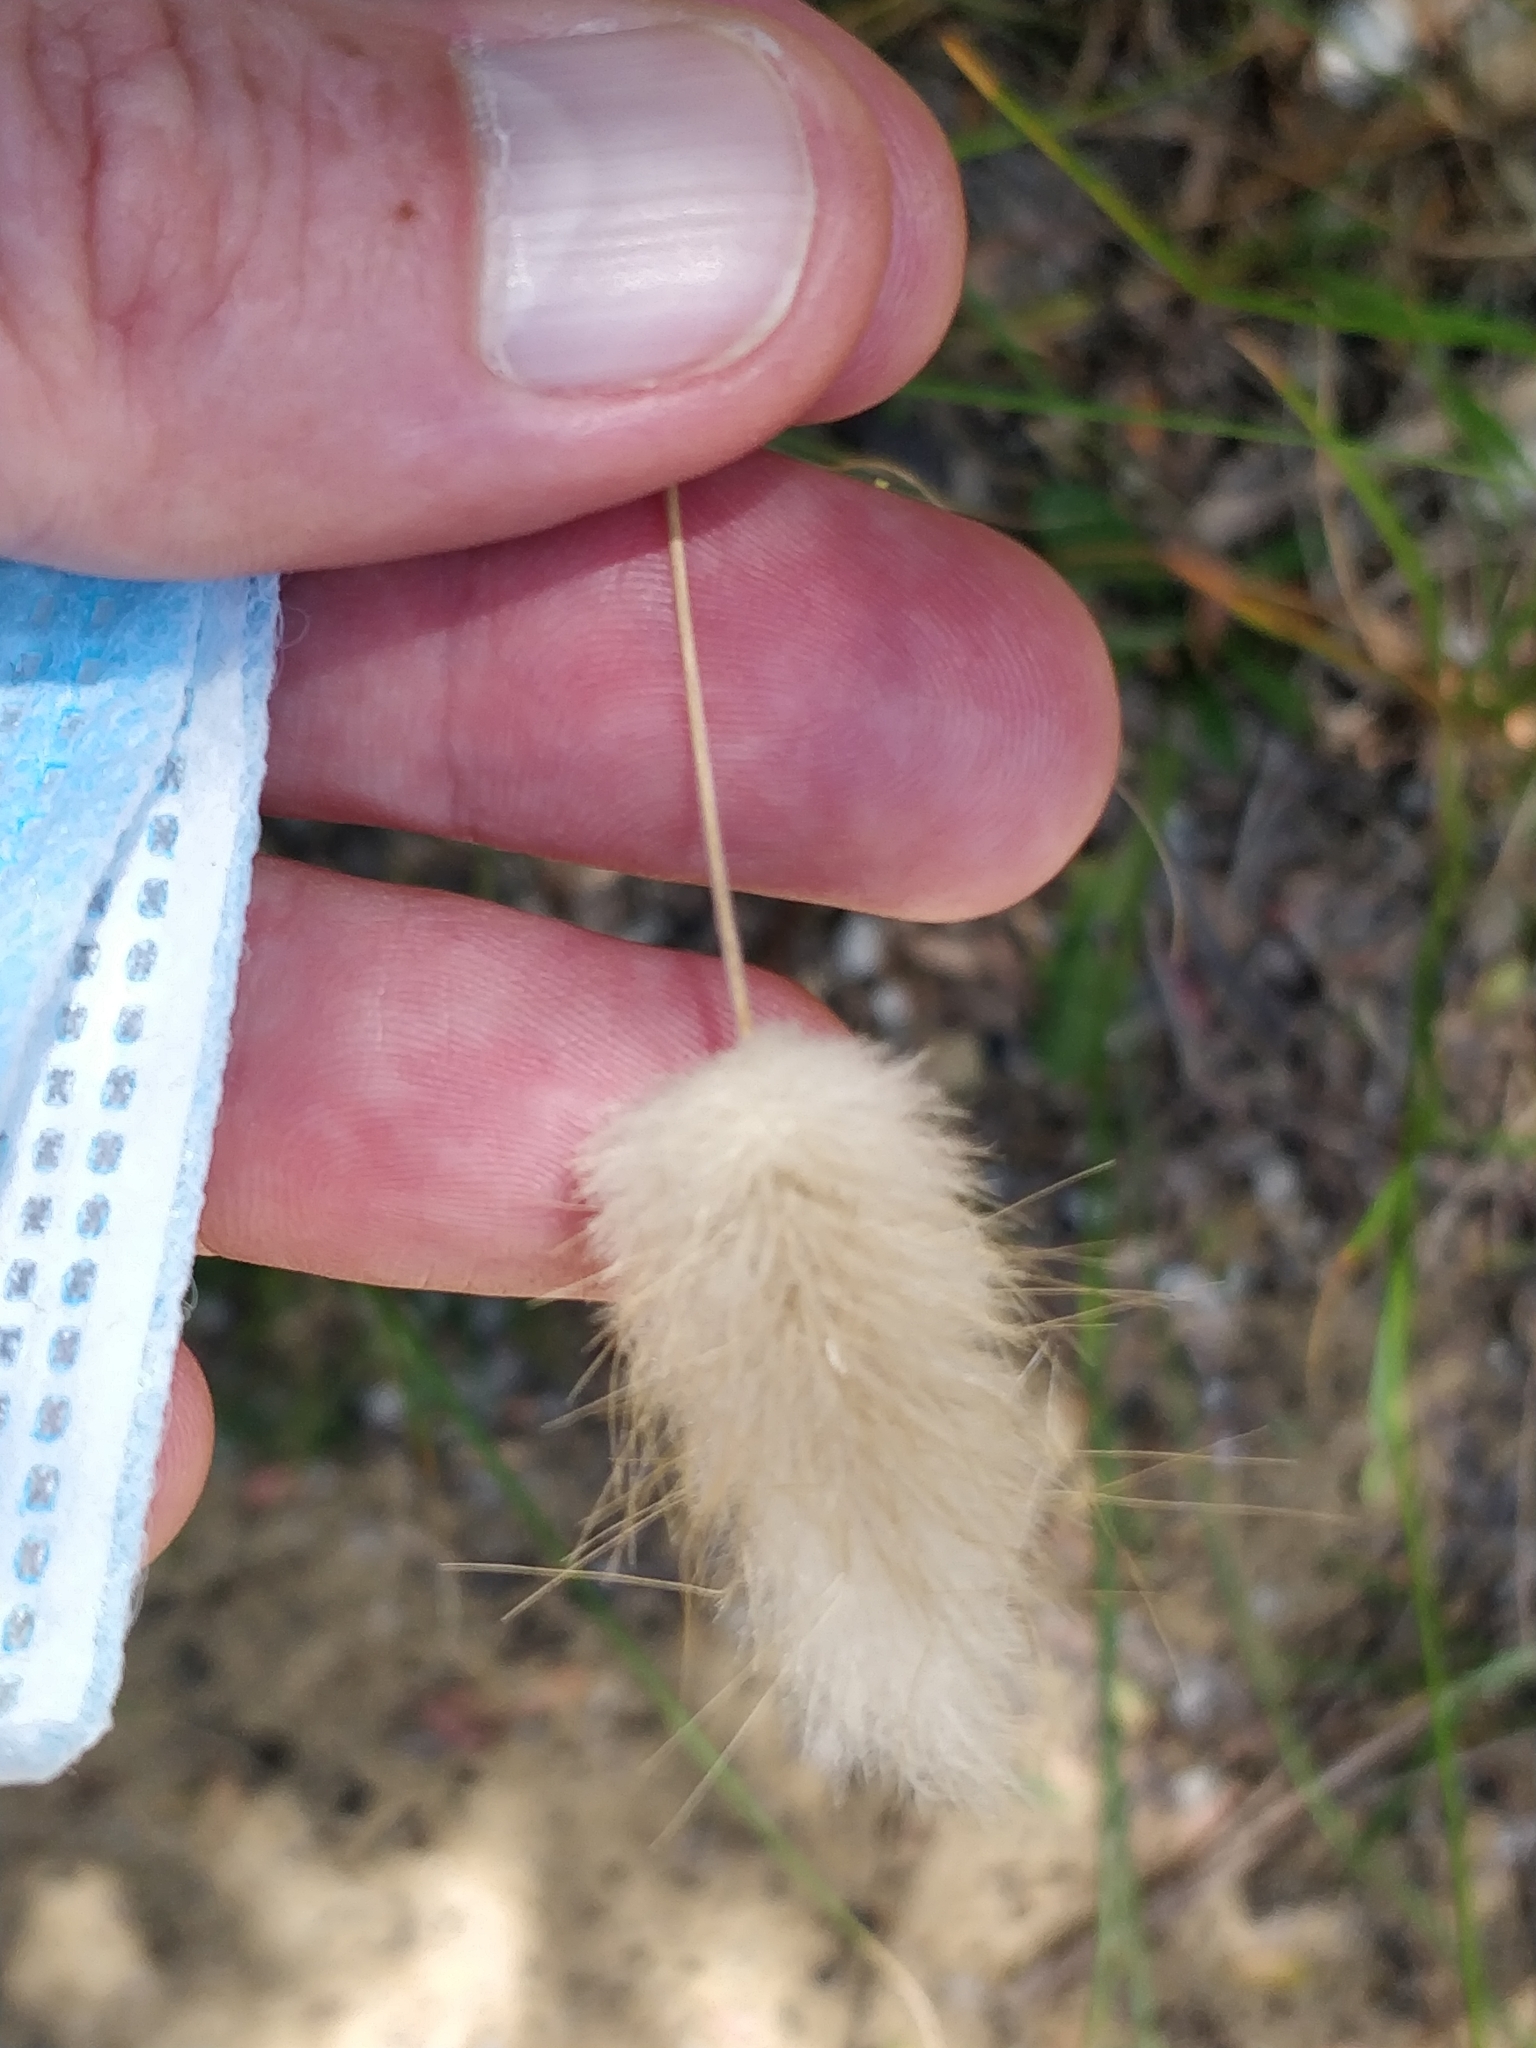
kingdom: Plantae
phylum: Tracheophyta
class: Liliopsida
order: Poales
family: Poaceae
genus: Lagurus
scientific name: Lagurus ovatus
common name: Hare's-tail
